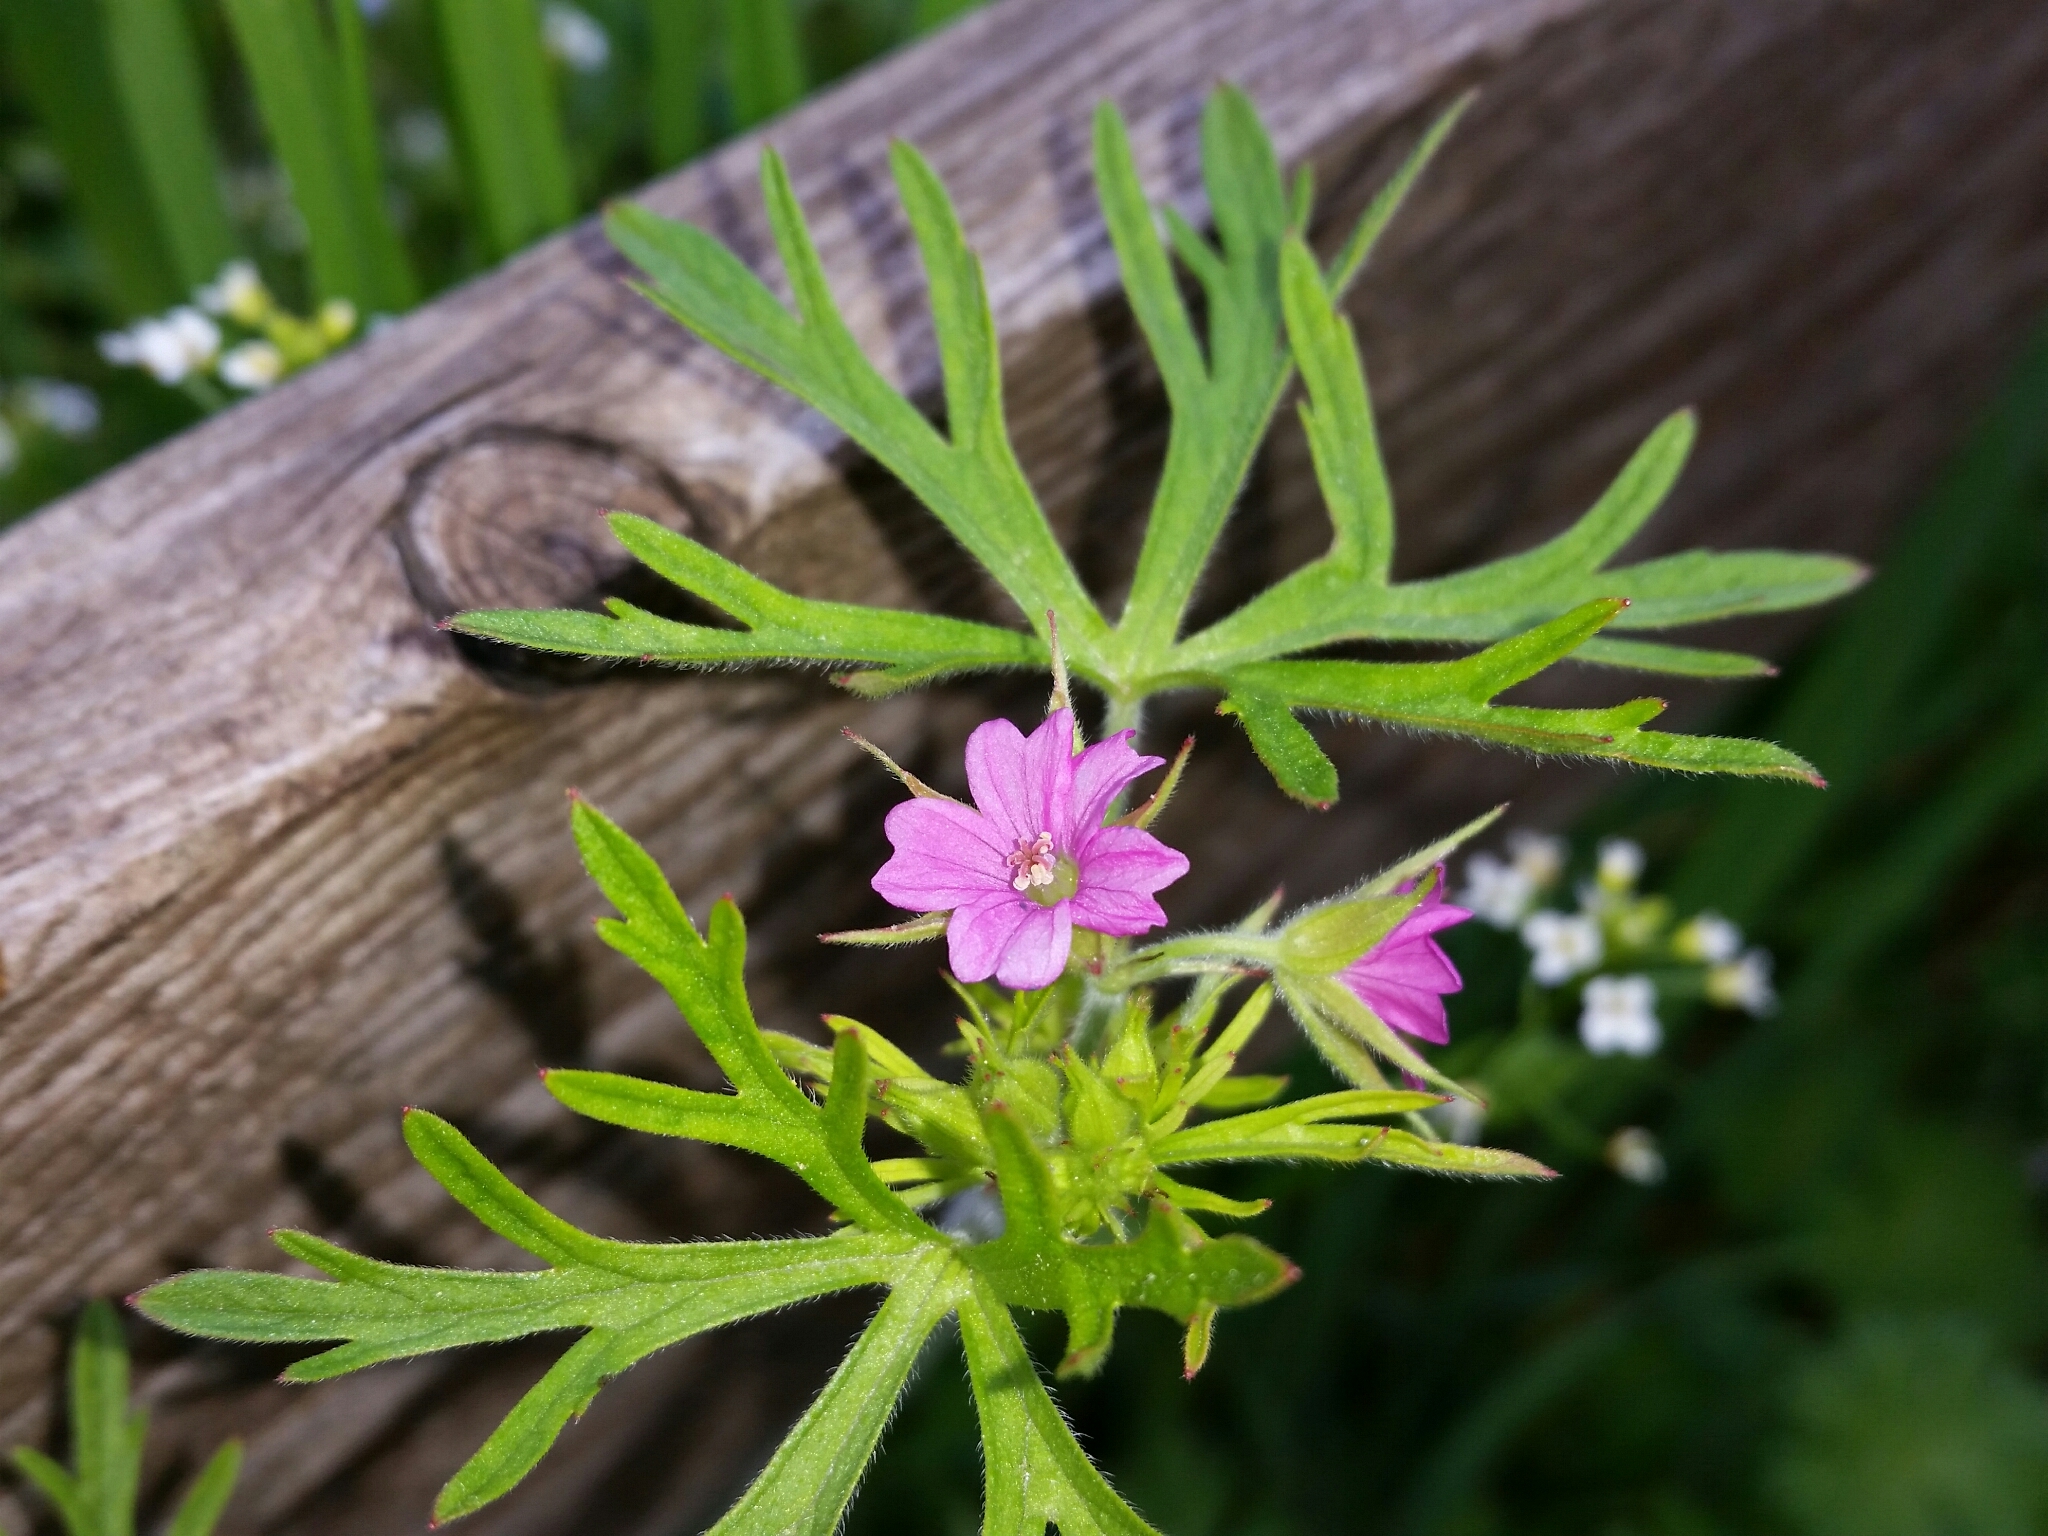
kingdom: Plantae
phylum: Tracheophyta
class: Magnoliopsida
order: Geraniales
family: Geraniaceae
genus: Geranium
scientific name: Geranium dissectum
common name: Cut-leaved crane's-bill
